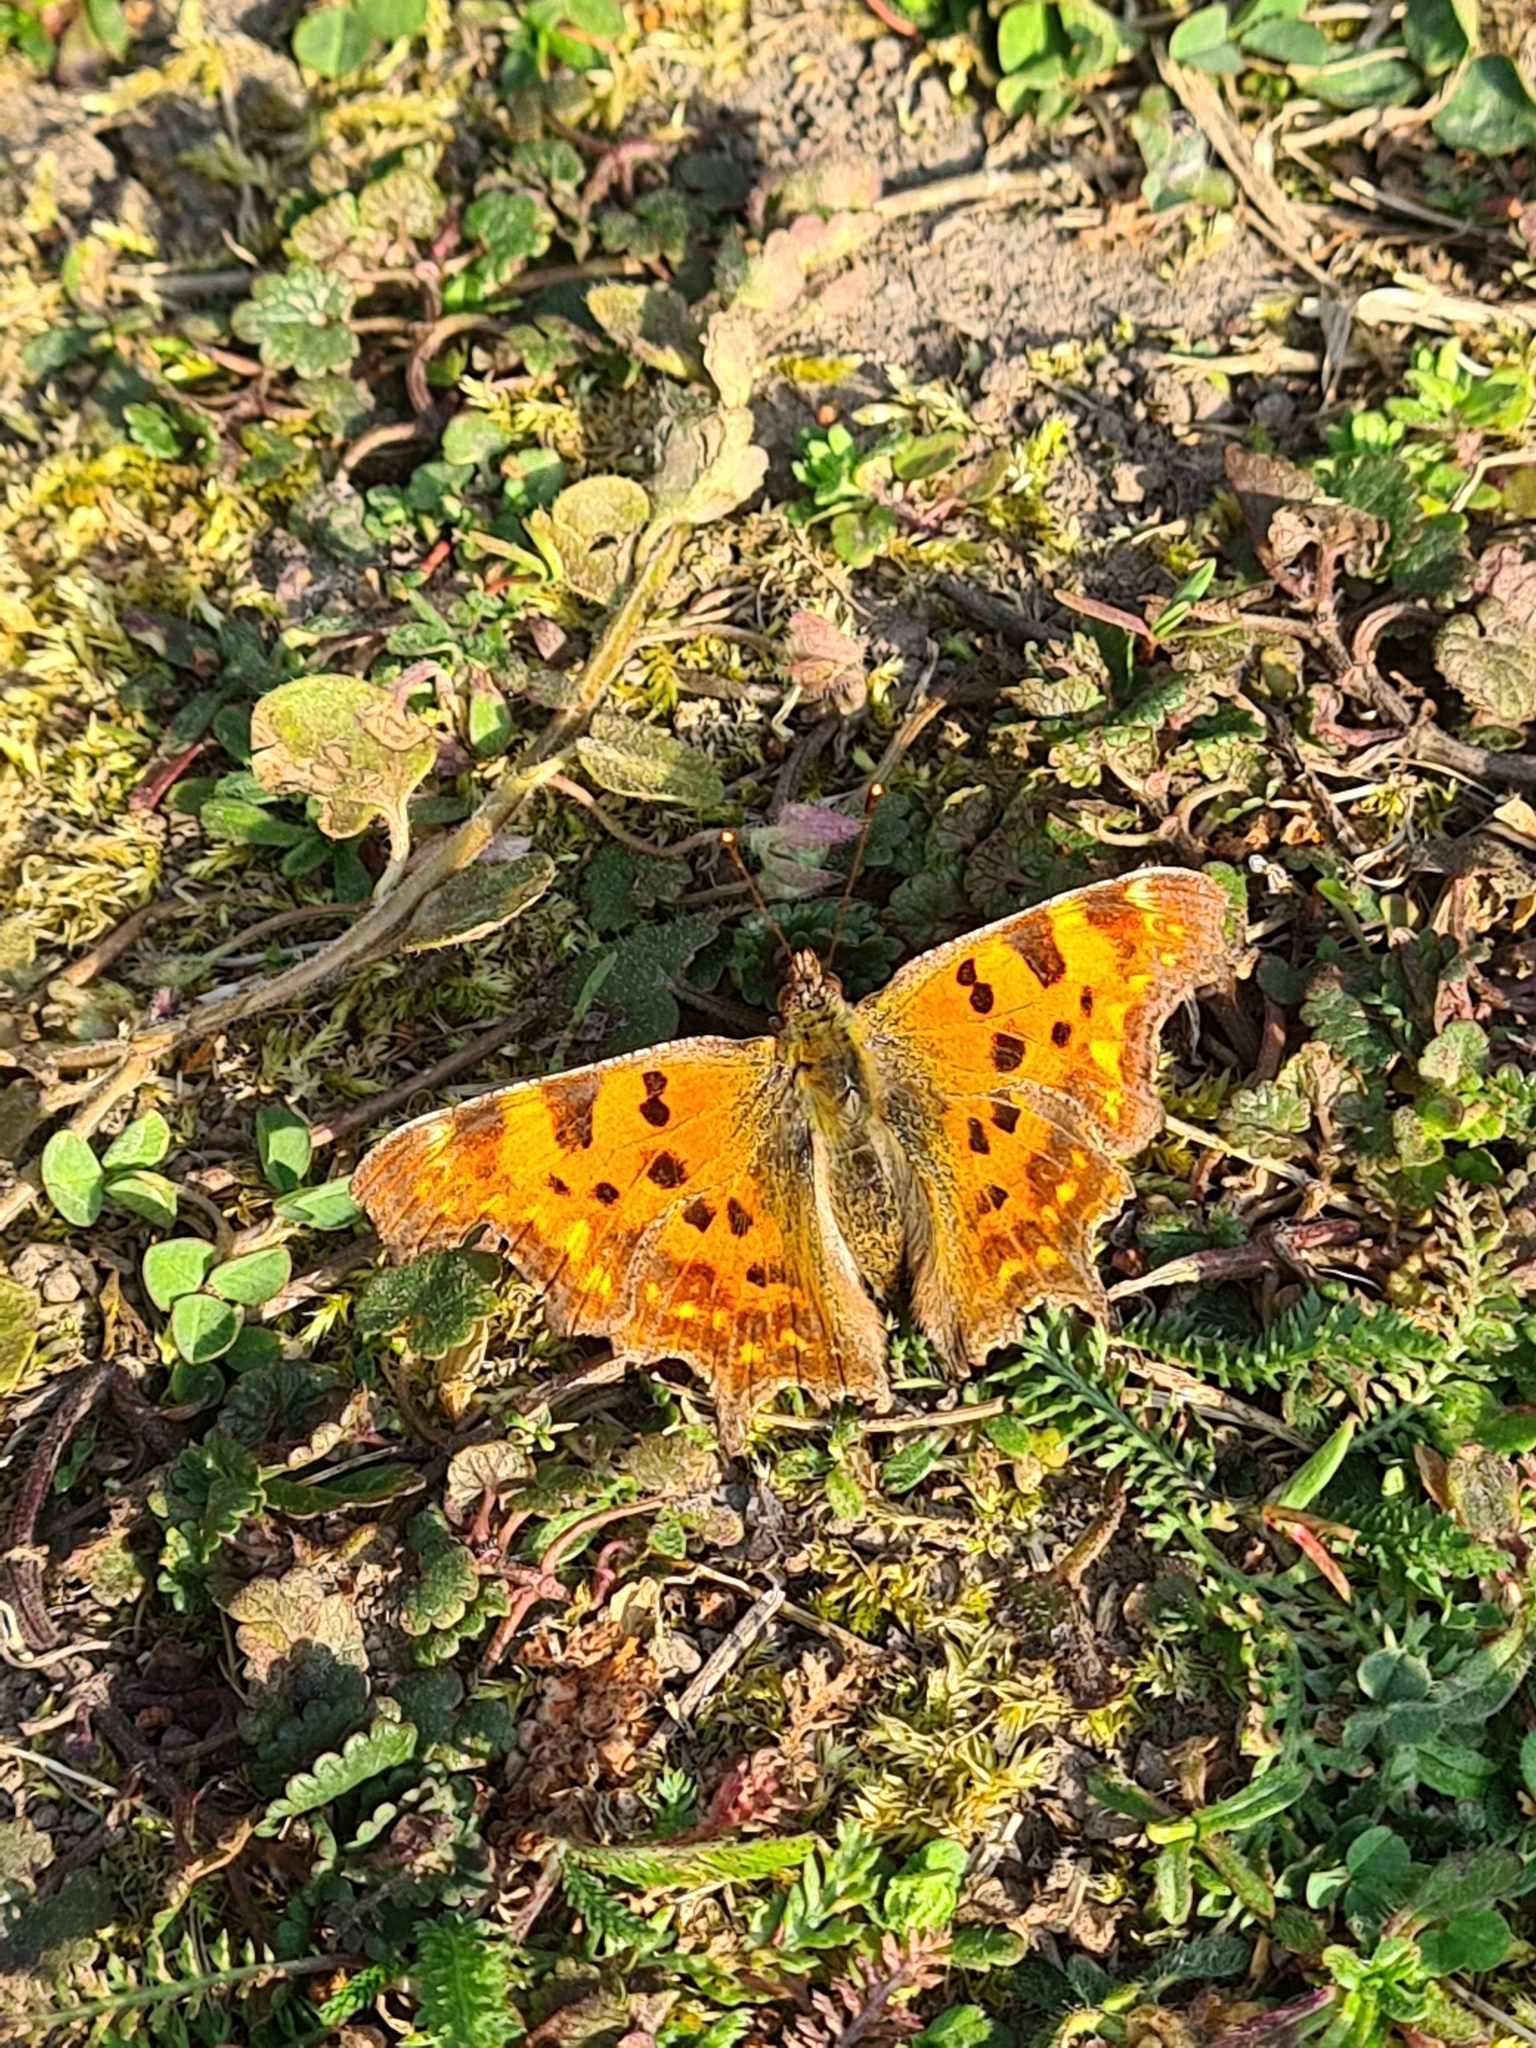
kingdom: Animalia
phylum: Arthropoda
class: Insecta
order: Lepidoptera
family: Nymphalidae
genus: Polygonia
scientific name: Polygonia c-album
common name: Comma
